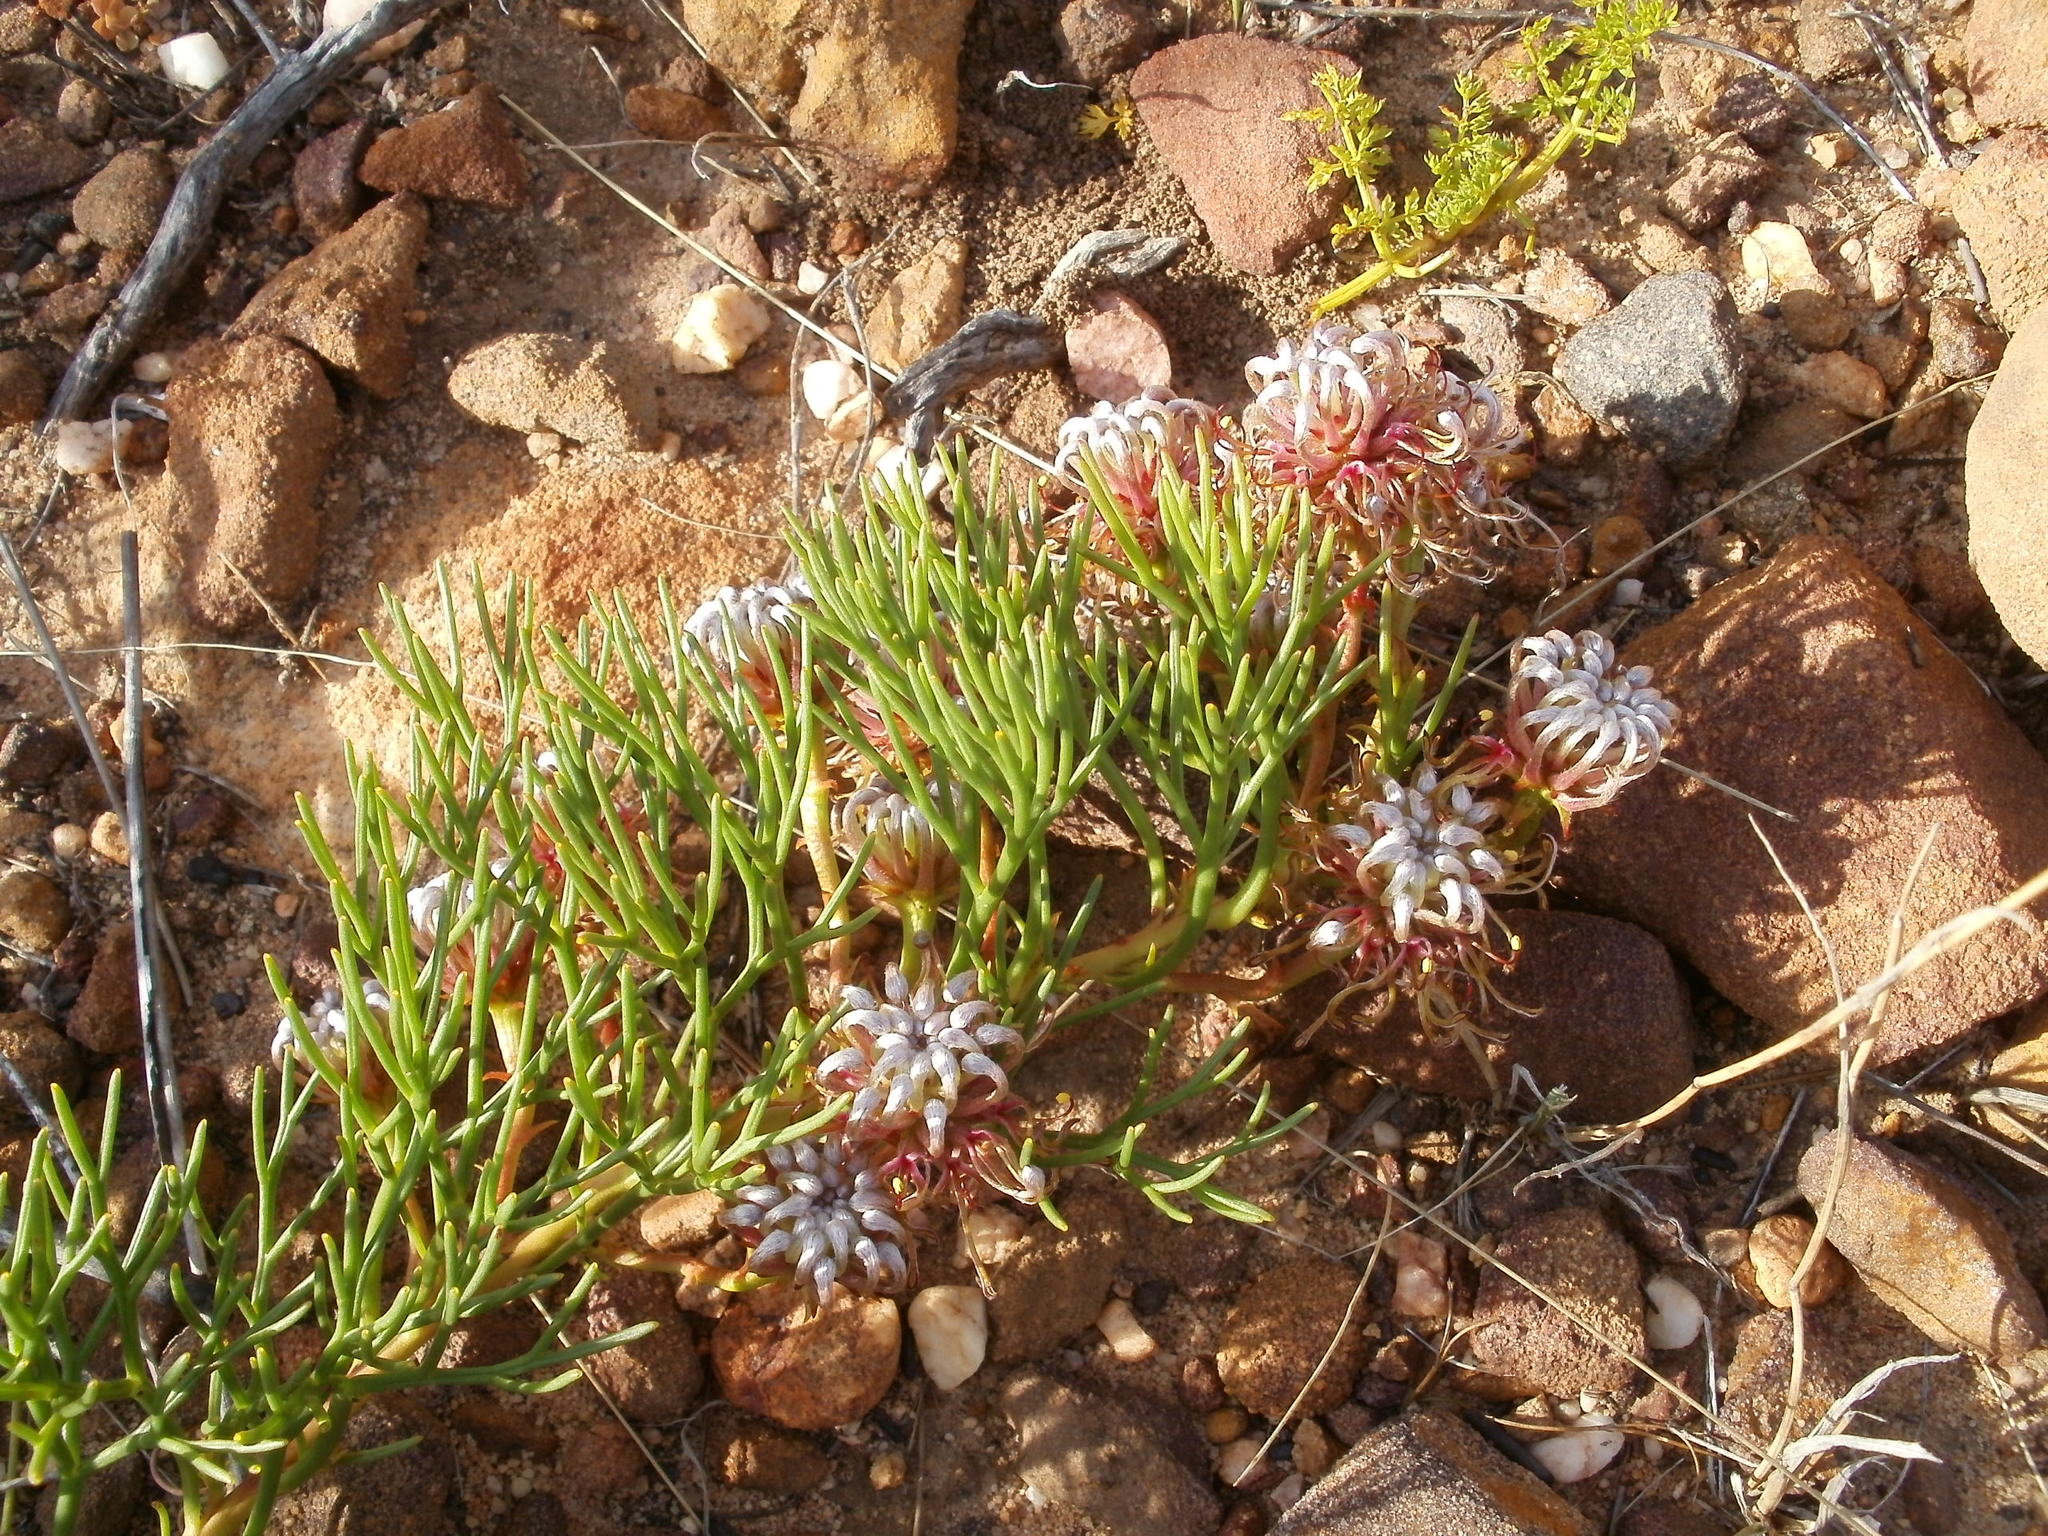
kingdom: Plantae
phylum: Tracheophyta
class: Magnoliopsida
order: Proteales
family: Proteaceae
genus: Serruria
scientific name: Serruria cygnea
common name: Swan spiderhead
